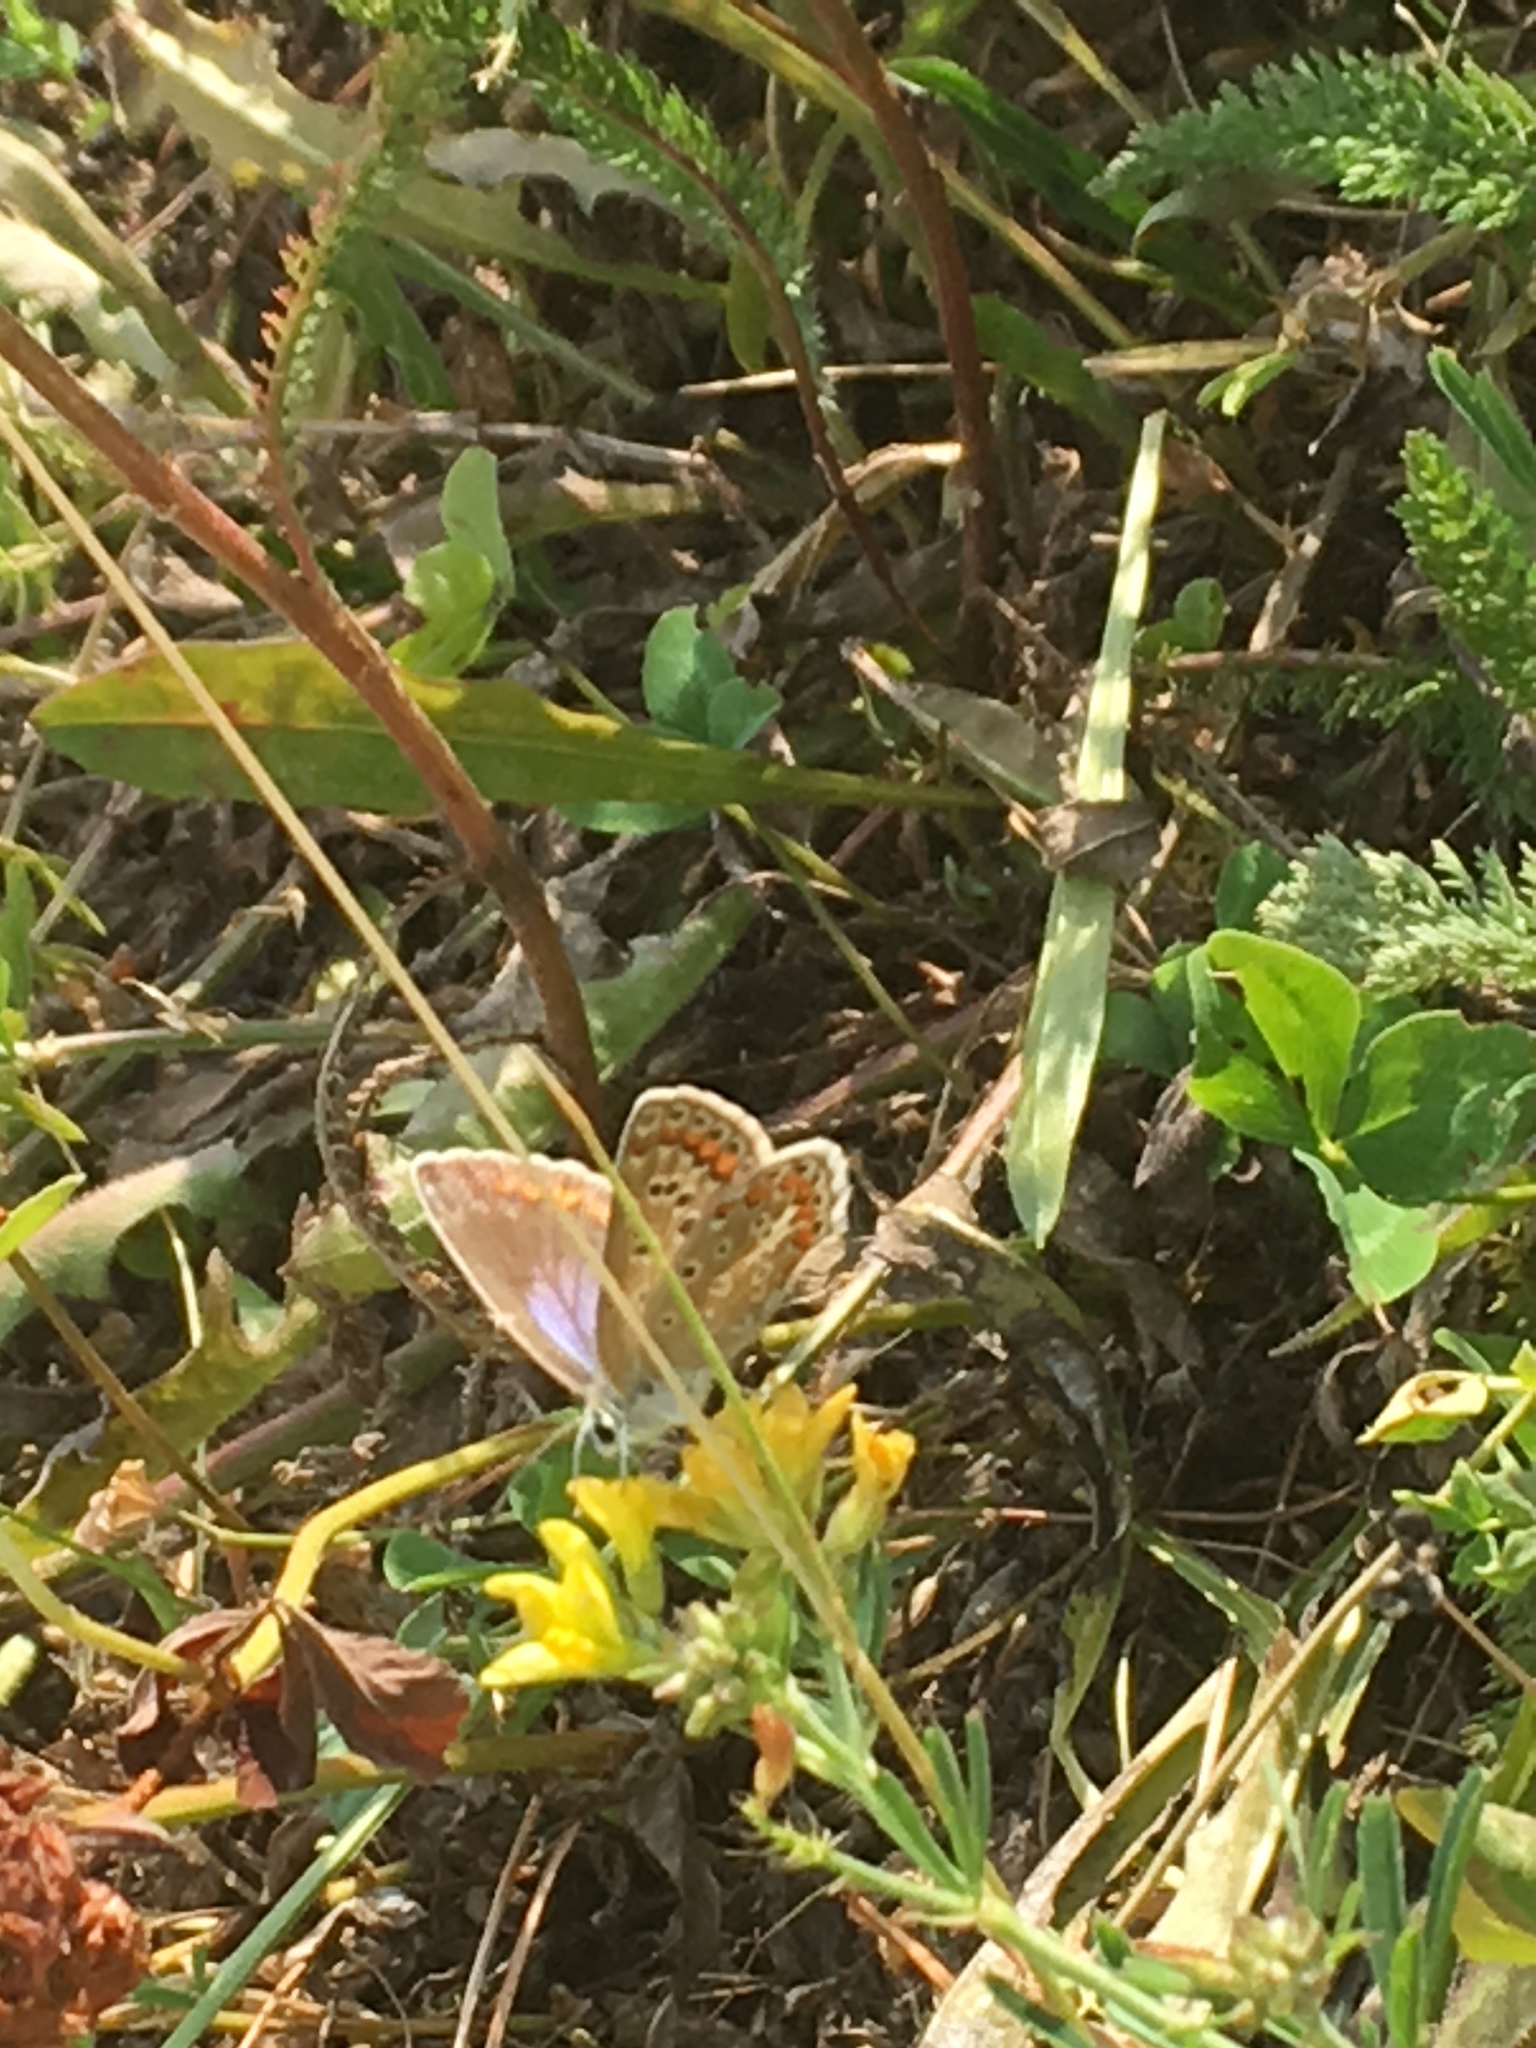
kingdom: Animalia
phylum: Arthropoda
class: Insecta
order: Lepidoptera
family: Lycaenidae
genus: Polyommatus
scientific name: Polyommatus icarus
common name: Common blue
